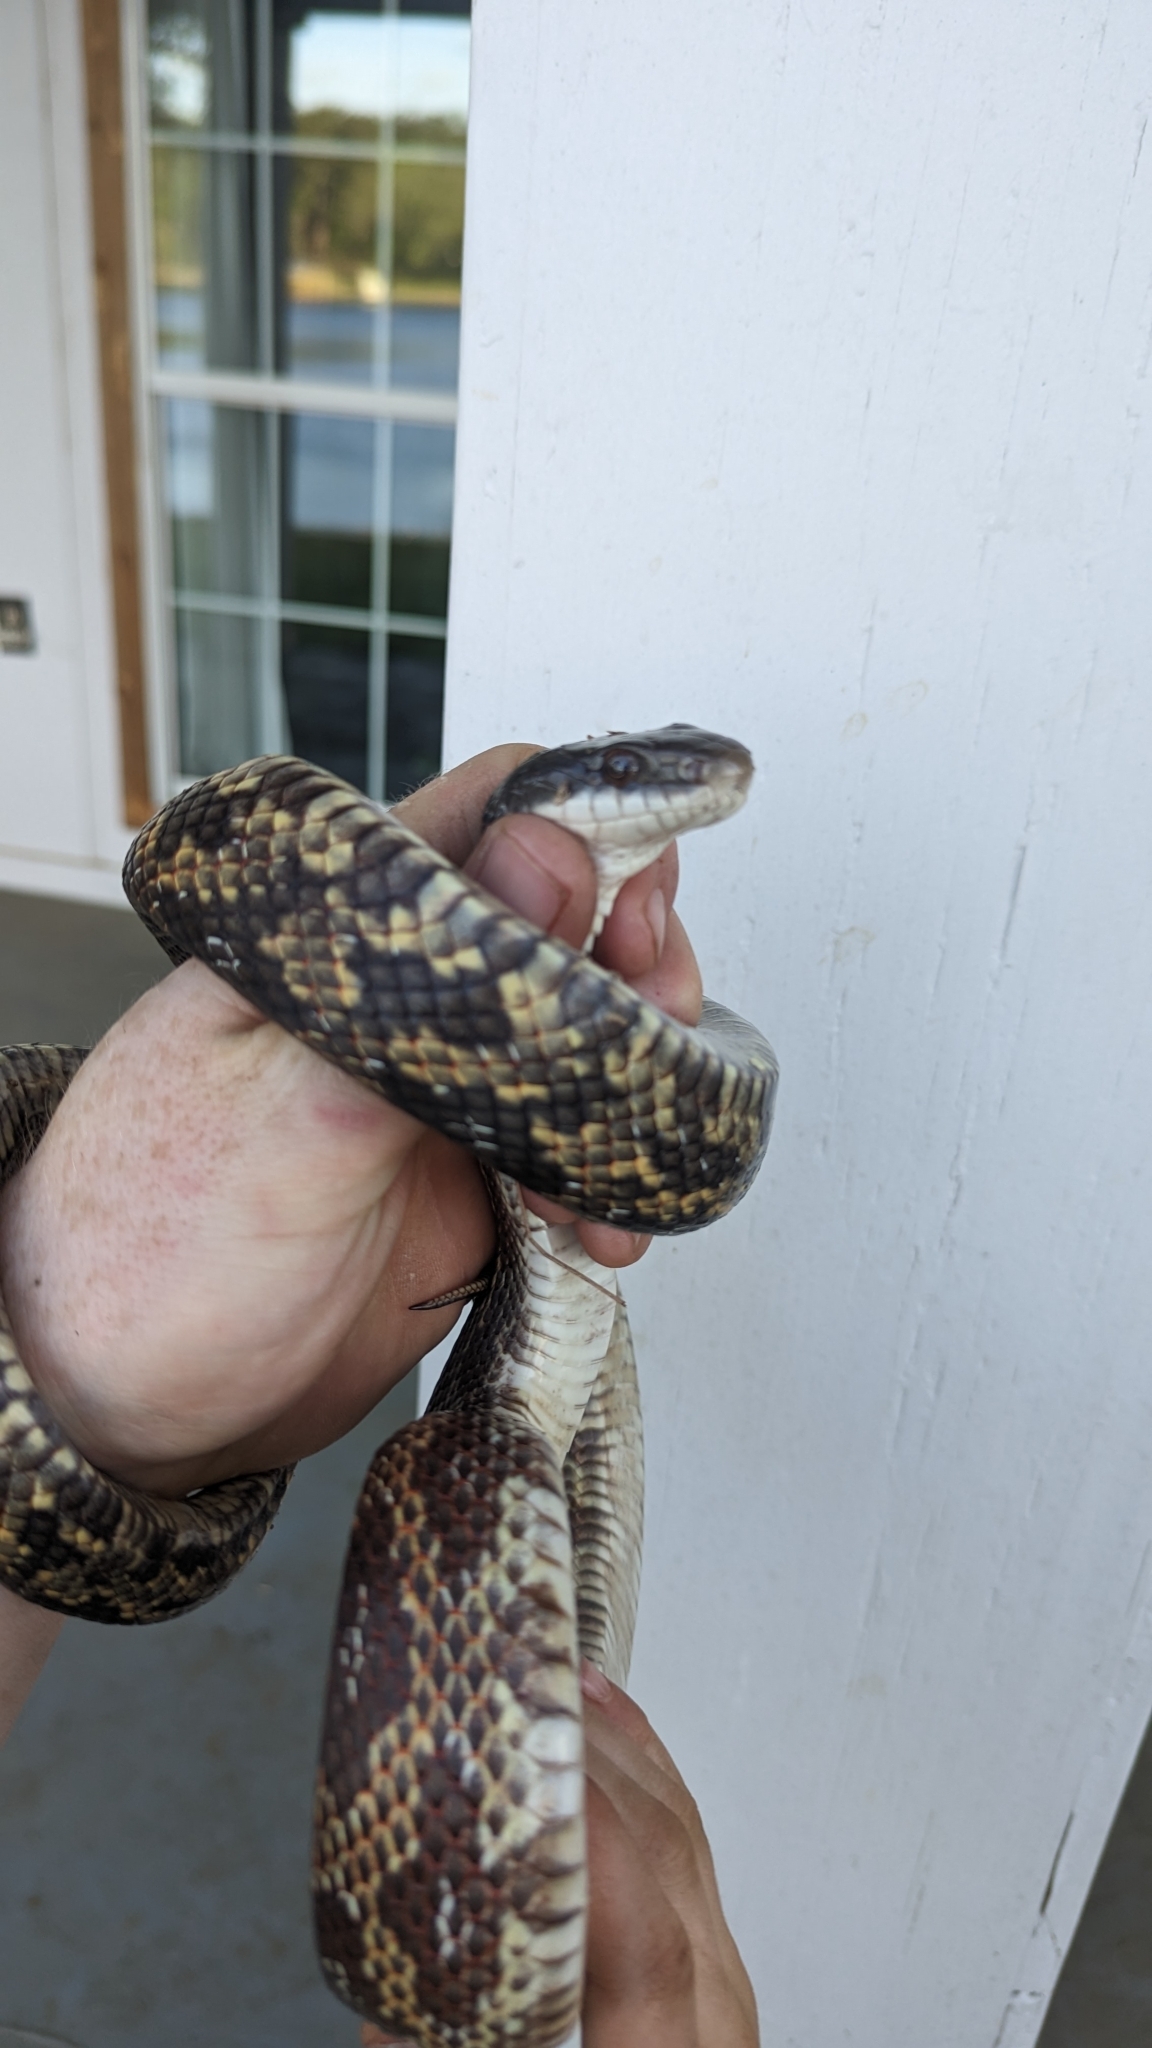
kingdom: Animalia
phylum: Chordata
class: Squamata
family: Colubridae
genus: Pantherophis
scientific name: Pantherophis obsoletus
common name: Black rat snake
